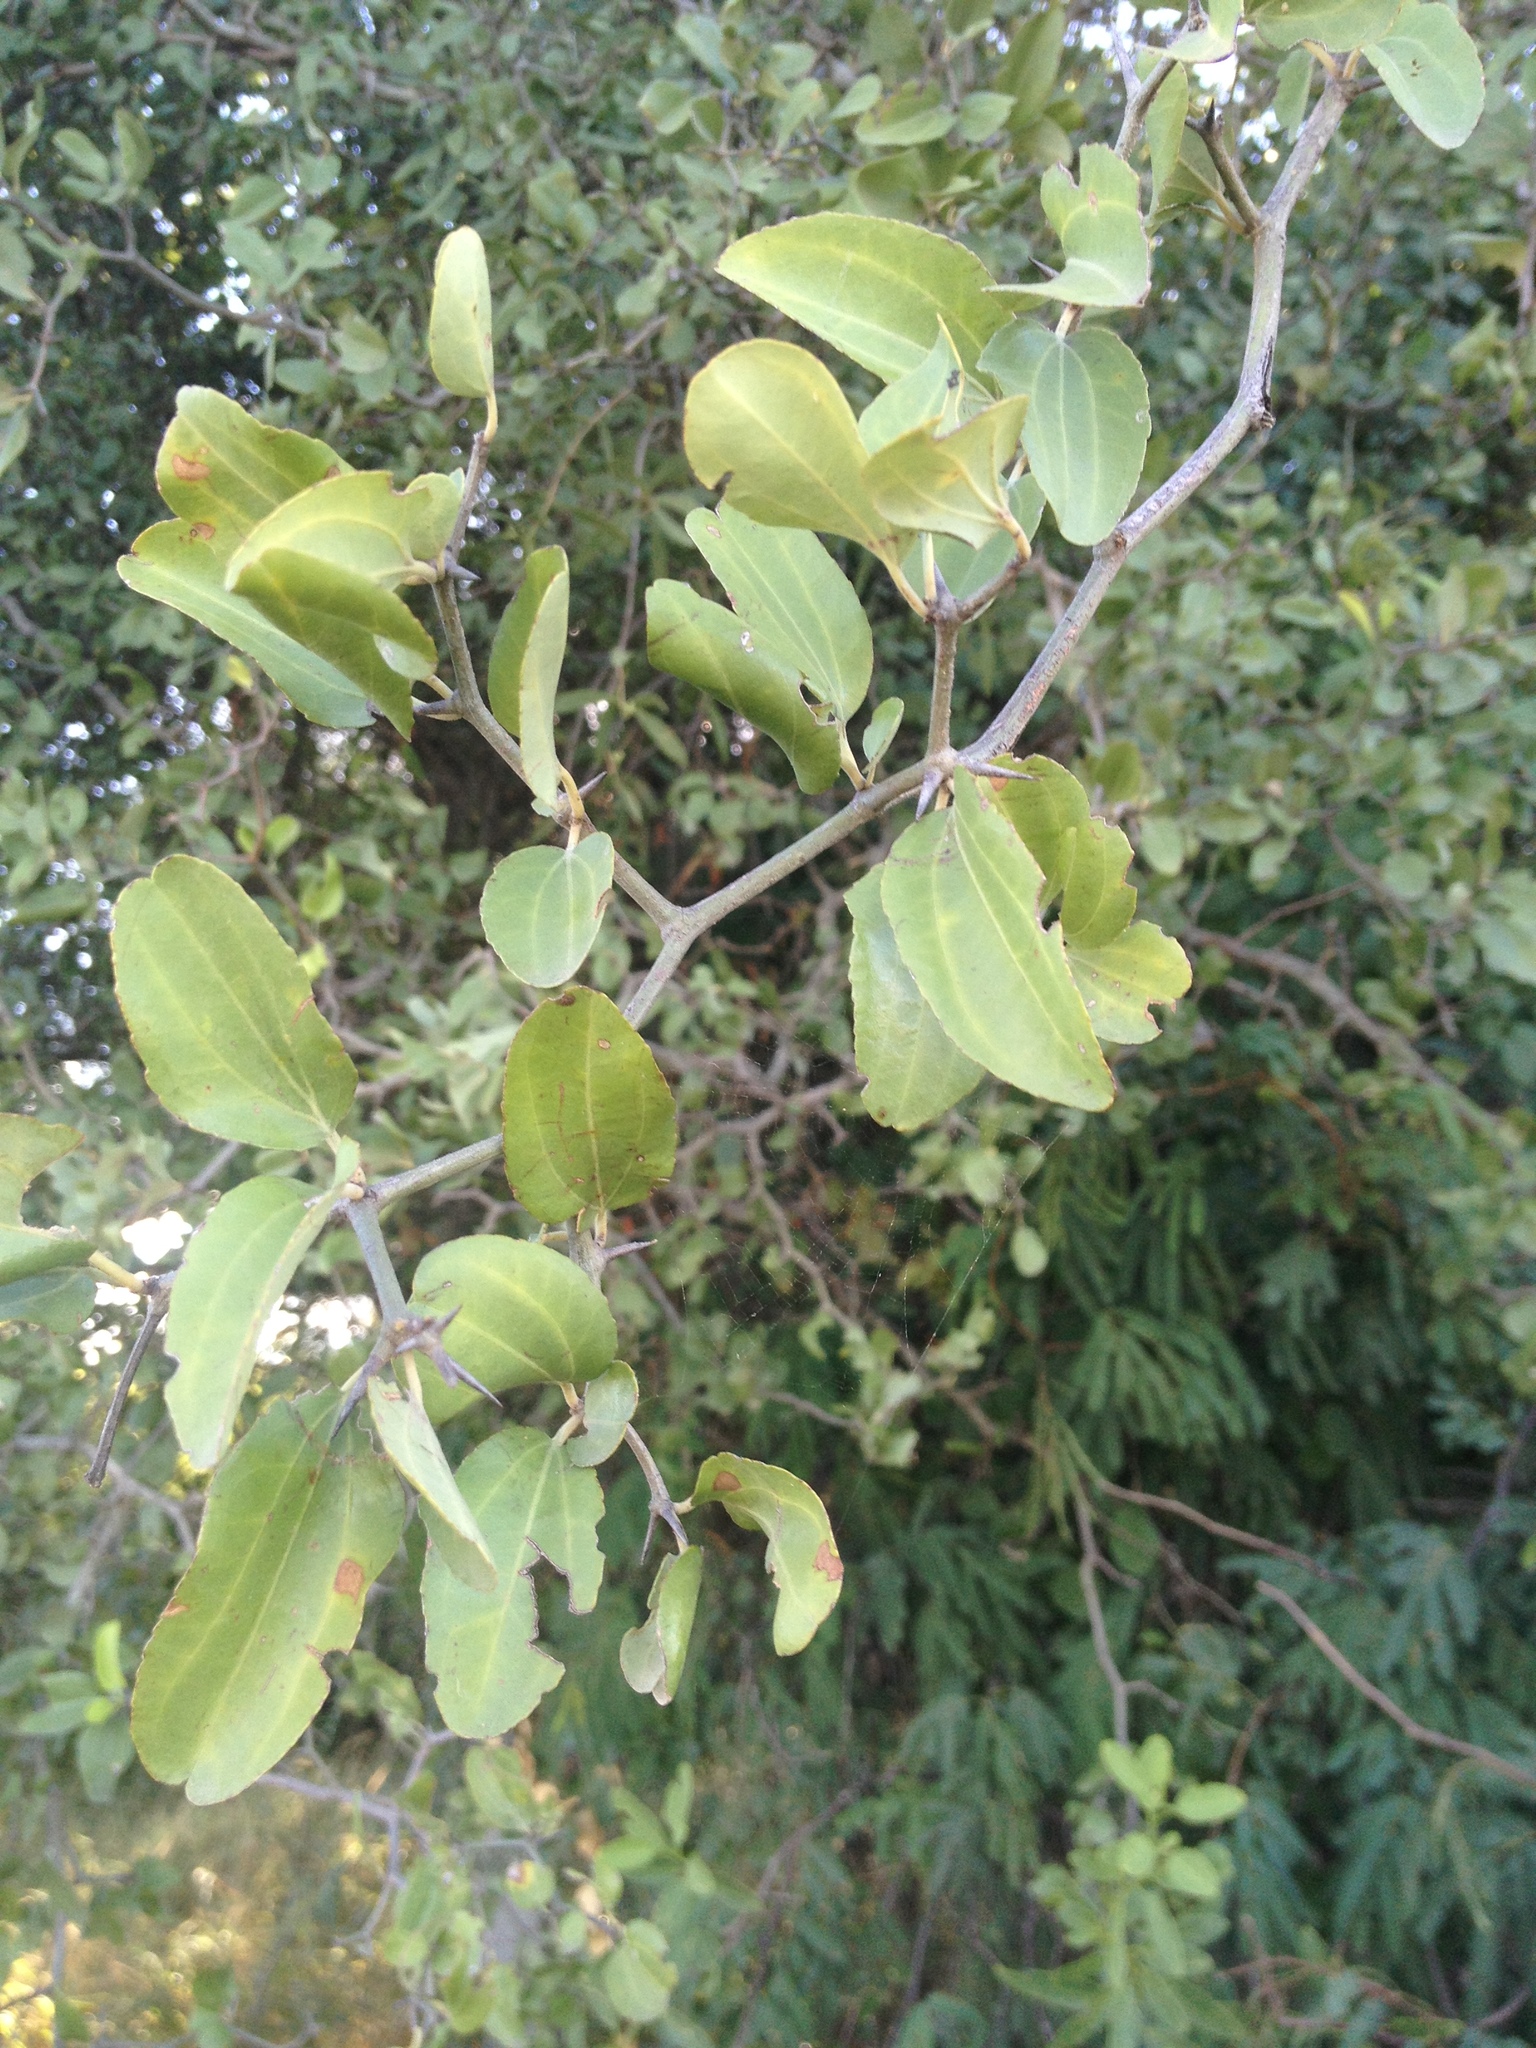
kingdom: Plantae
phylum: Tracheophyta
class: Magnoliopsida
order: Rosales
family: Rhamnaceae
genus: Sarcomphalus
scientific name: Sarcomphalus mistol
